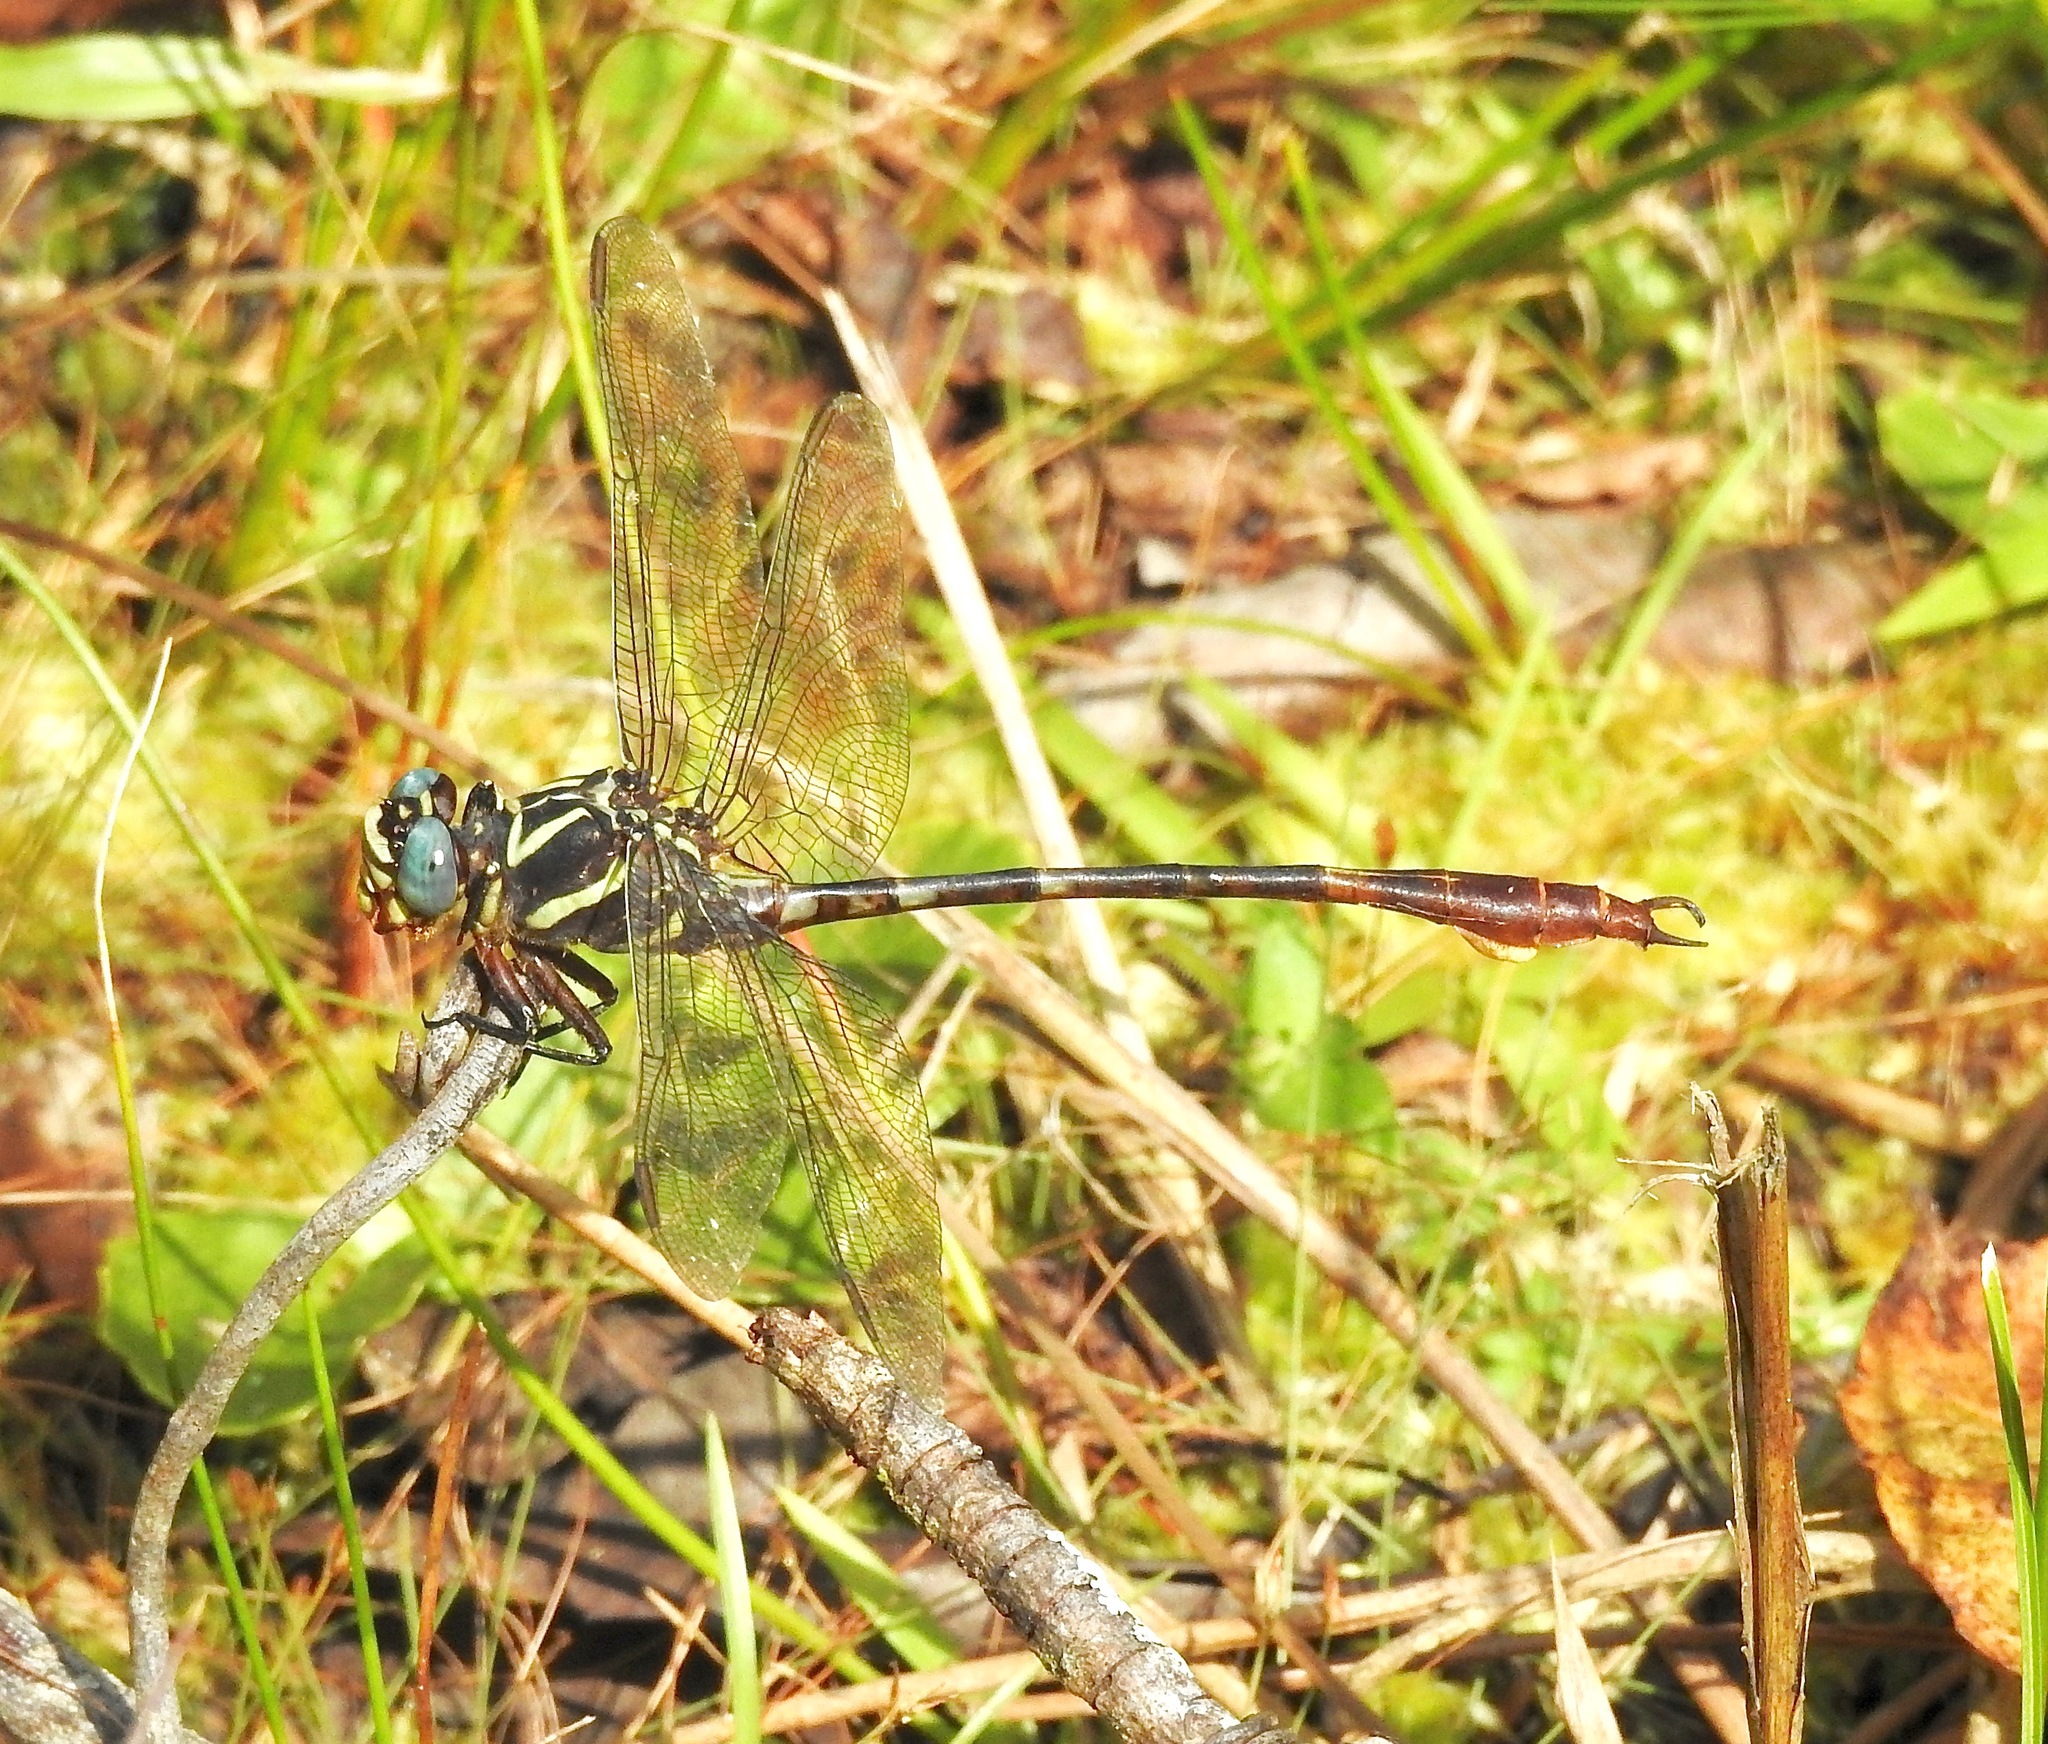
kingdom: Animalia
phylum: Arthropoda
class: Insecta
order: Odonata
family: Gomphidae
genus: Aphylla
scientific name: Aphylla williamsoni
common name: Two-striped forceptail
